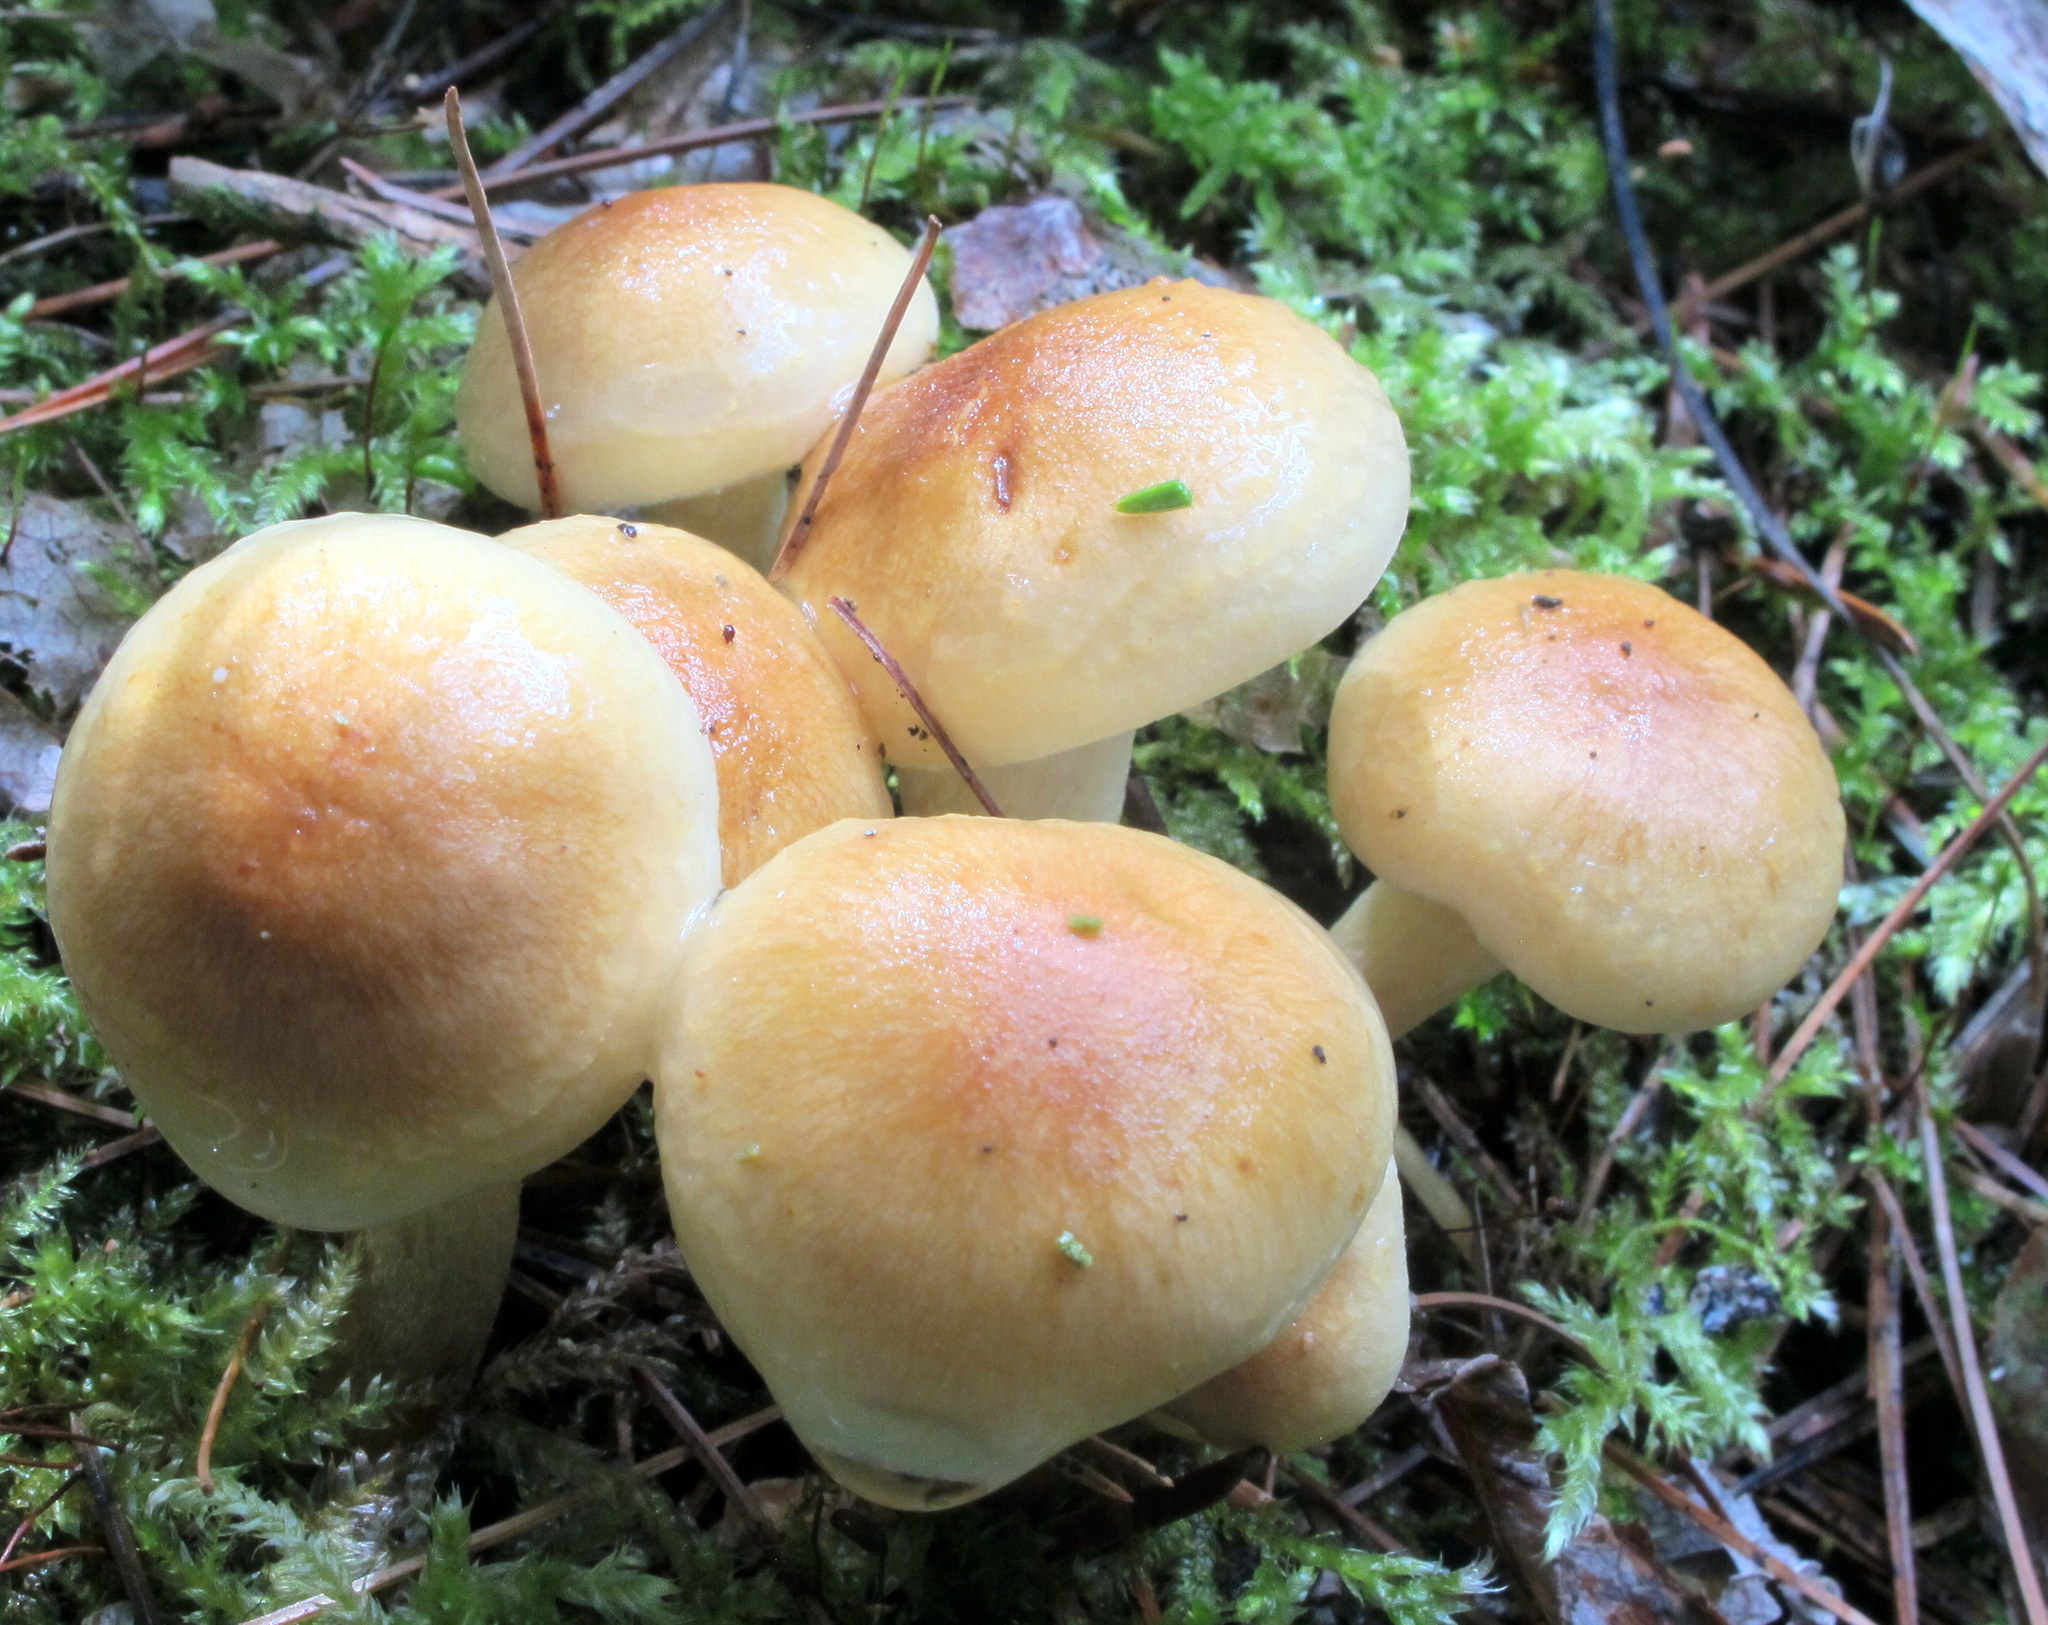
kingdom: Fungi
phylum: Basidiomycota
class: Agaricomycetes
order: Agaricales
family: Strophariaceae
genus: Hypholoma
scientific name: Hypholoma capnoides
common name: Conifer tuft
